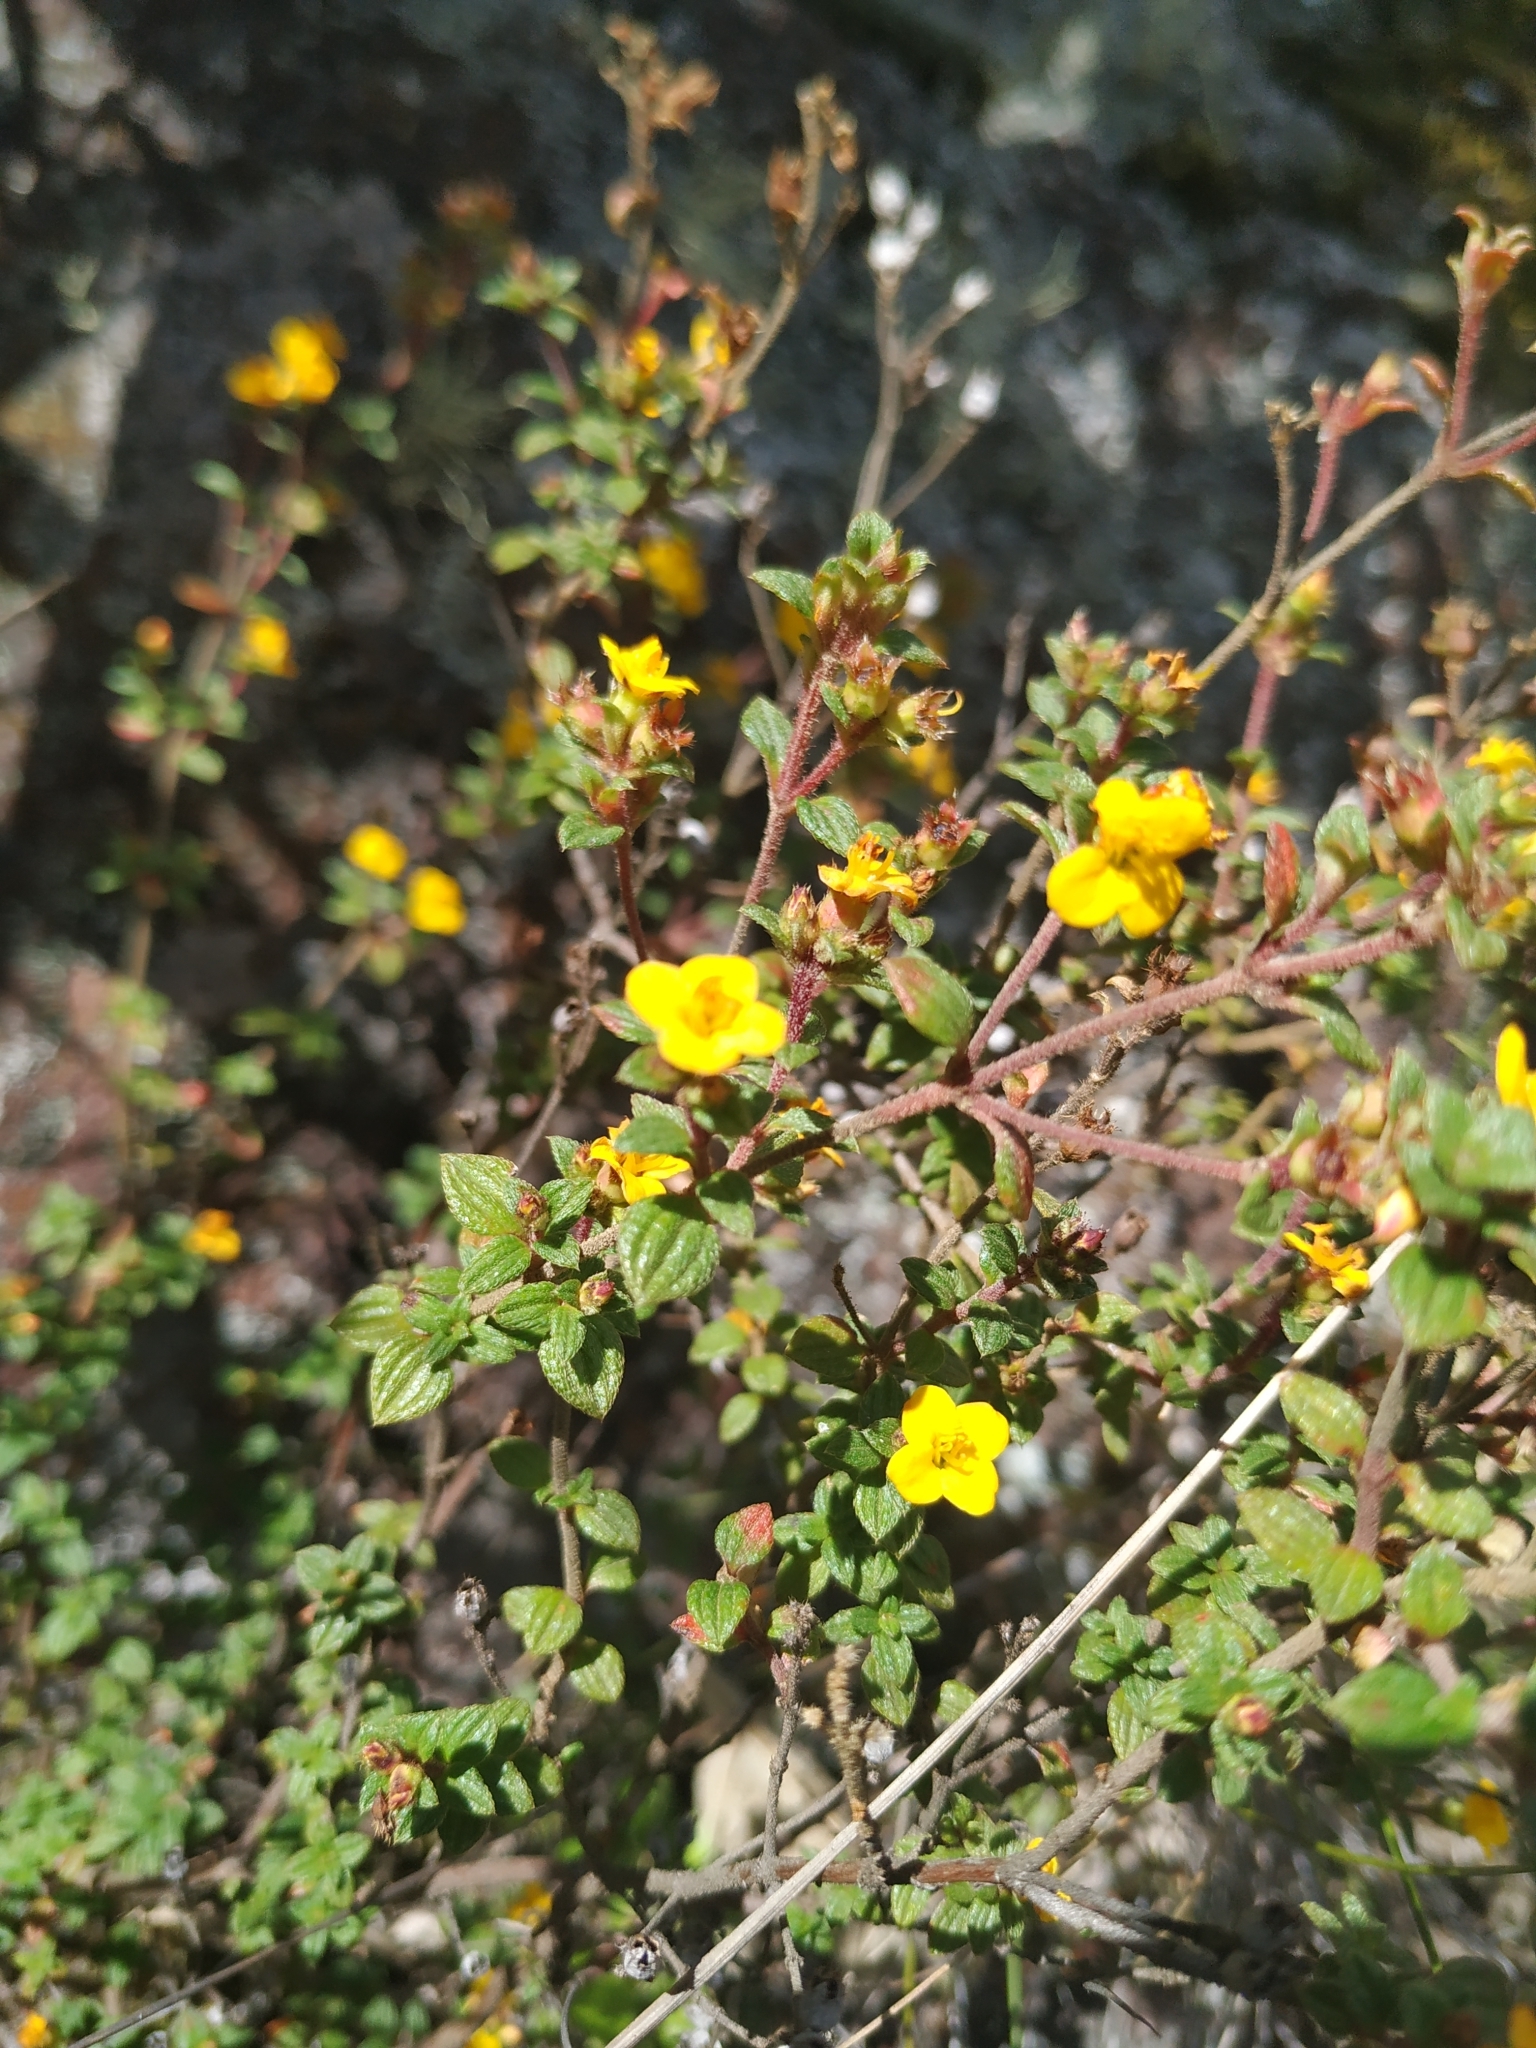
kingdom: Plantae
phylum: Tracheophyta
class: Magnoliopsida
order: Myrtales
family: Melastomataceae
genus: Chaetolepis
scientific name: Chaetolepis microphylla
